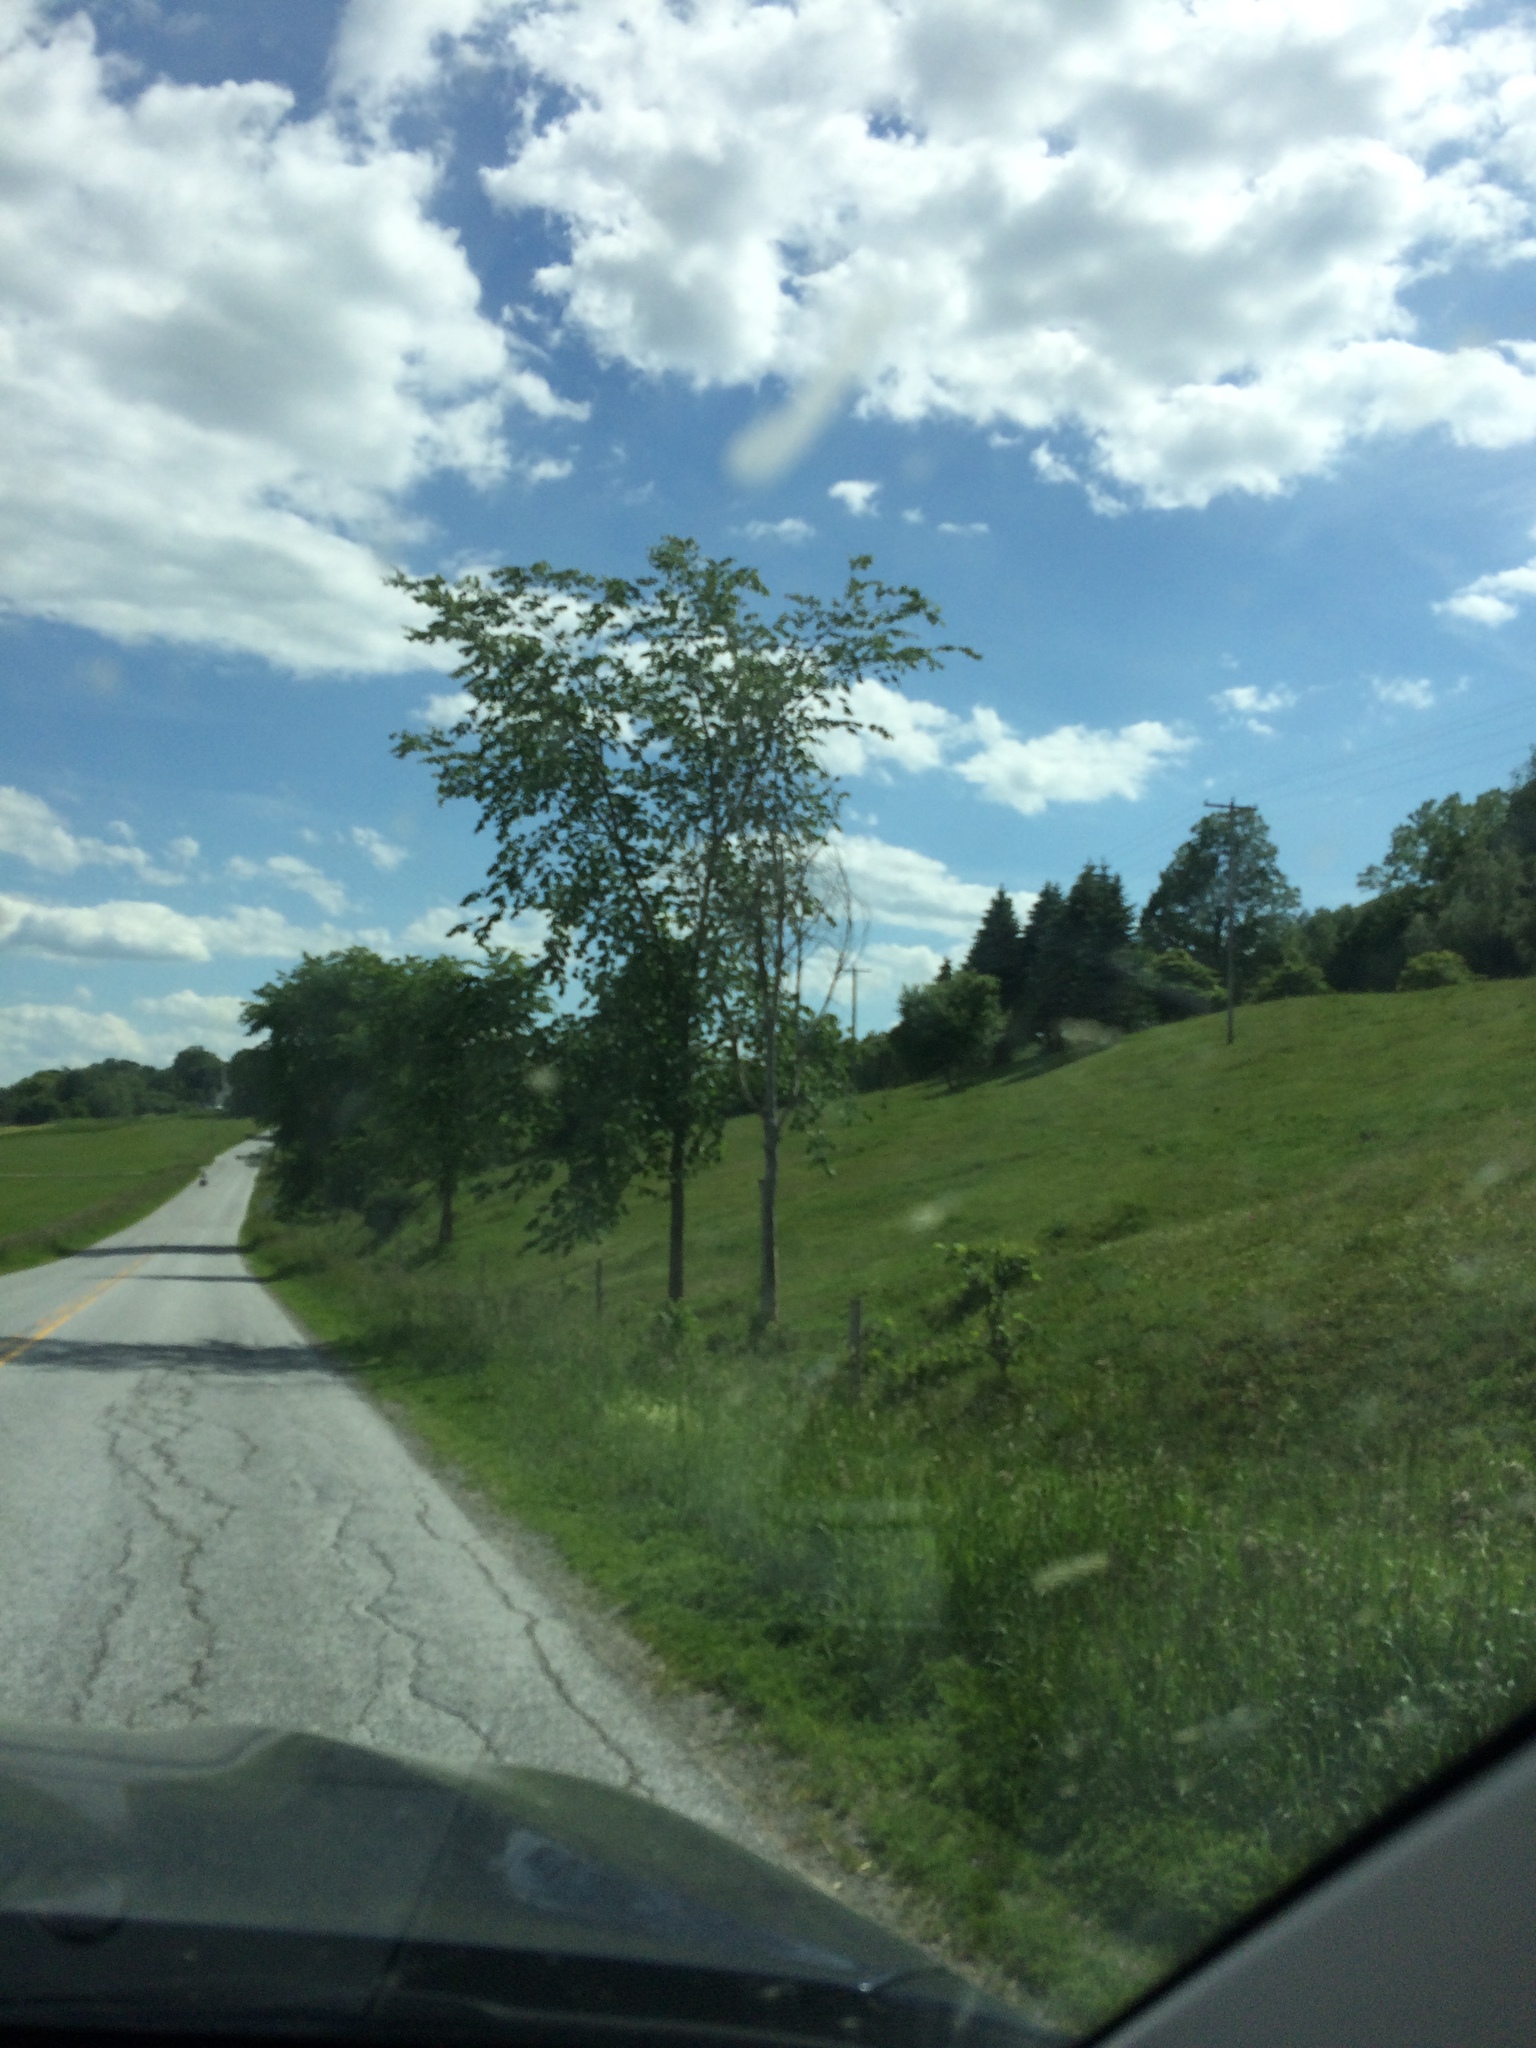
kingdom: Plantae
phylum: Tracheophyta
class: Magnoliopsida
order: Rosales
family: Ulmaceae
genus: Ulmus
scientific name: Ulmus americana
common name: American elm
